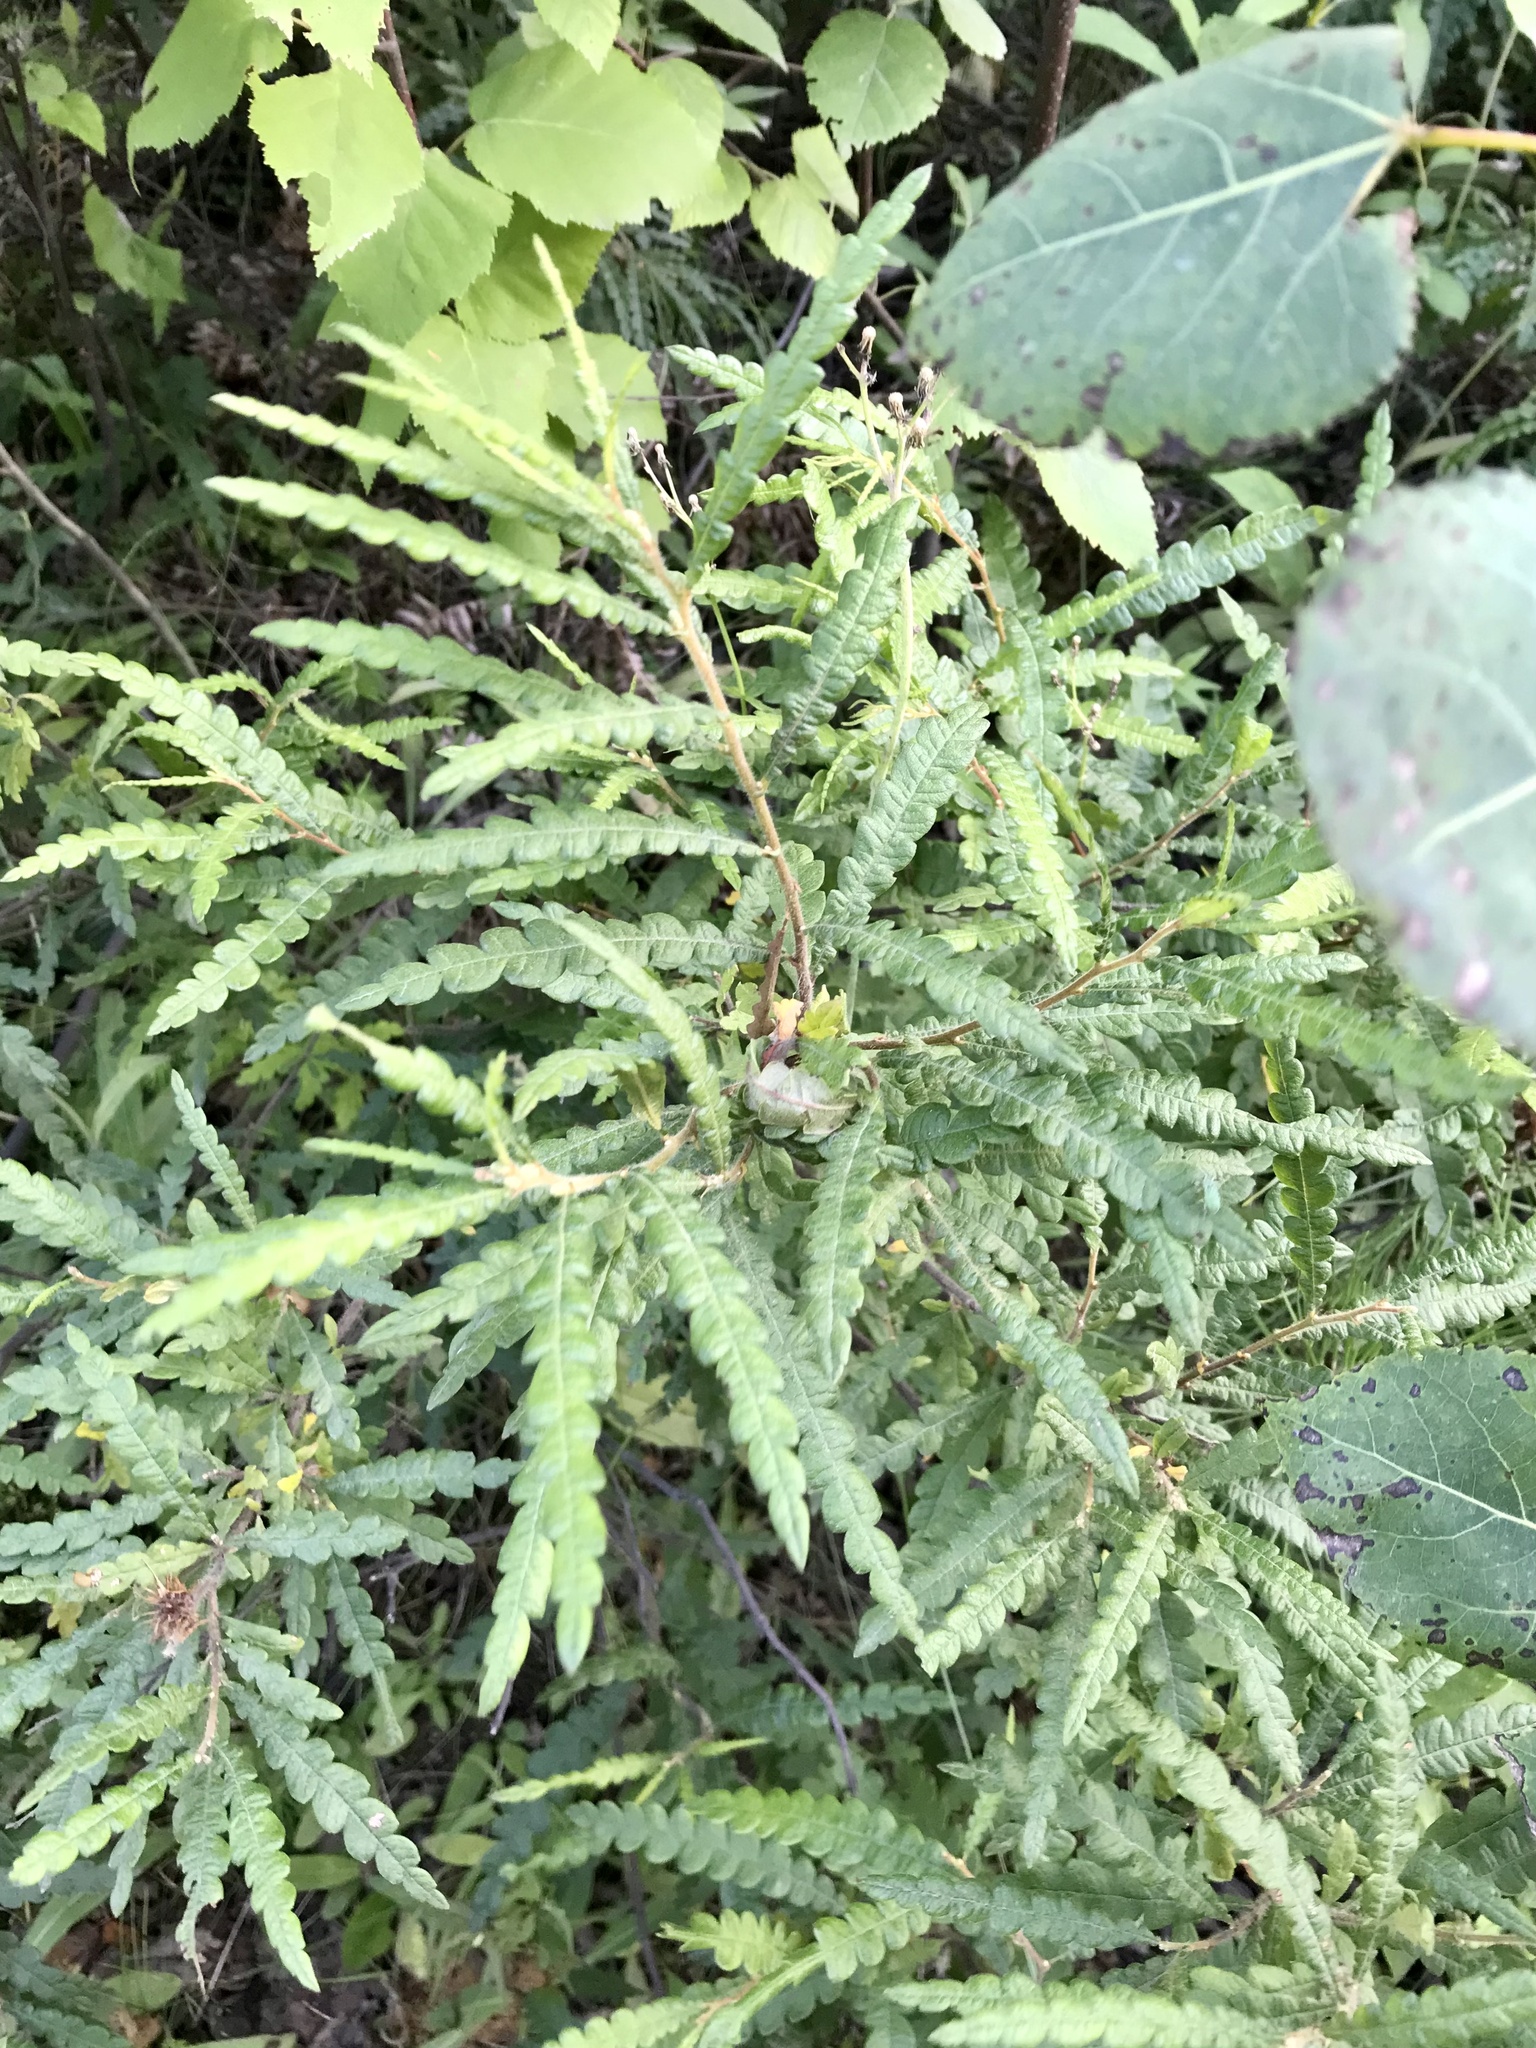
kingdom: Plantae
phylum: Tracheophyta
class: Magnoliopsida
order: Fagales
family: Myricaceae
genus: Comptonia
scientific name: Comptonia peregrina
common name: Sweet-fern
